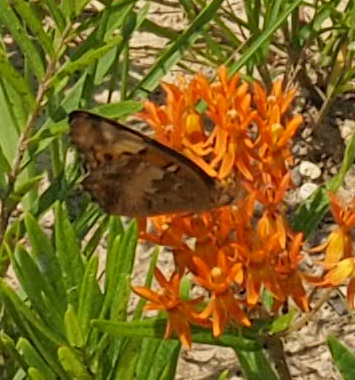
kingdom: Animalia
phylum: Arthropoda
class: Insecta
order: Lepidoptera
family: Nymphalidae
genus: Euptoieta
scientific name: Euptoieta claudia
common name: Variegated fritillary
